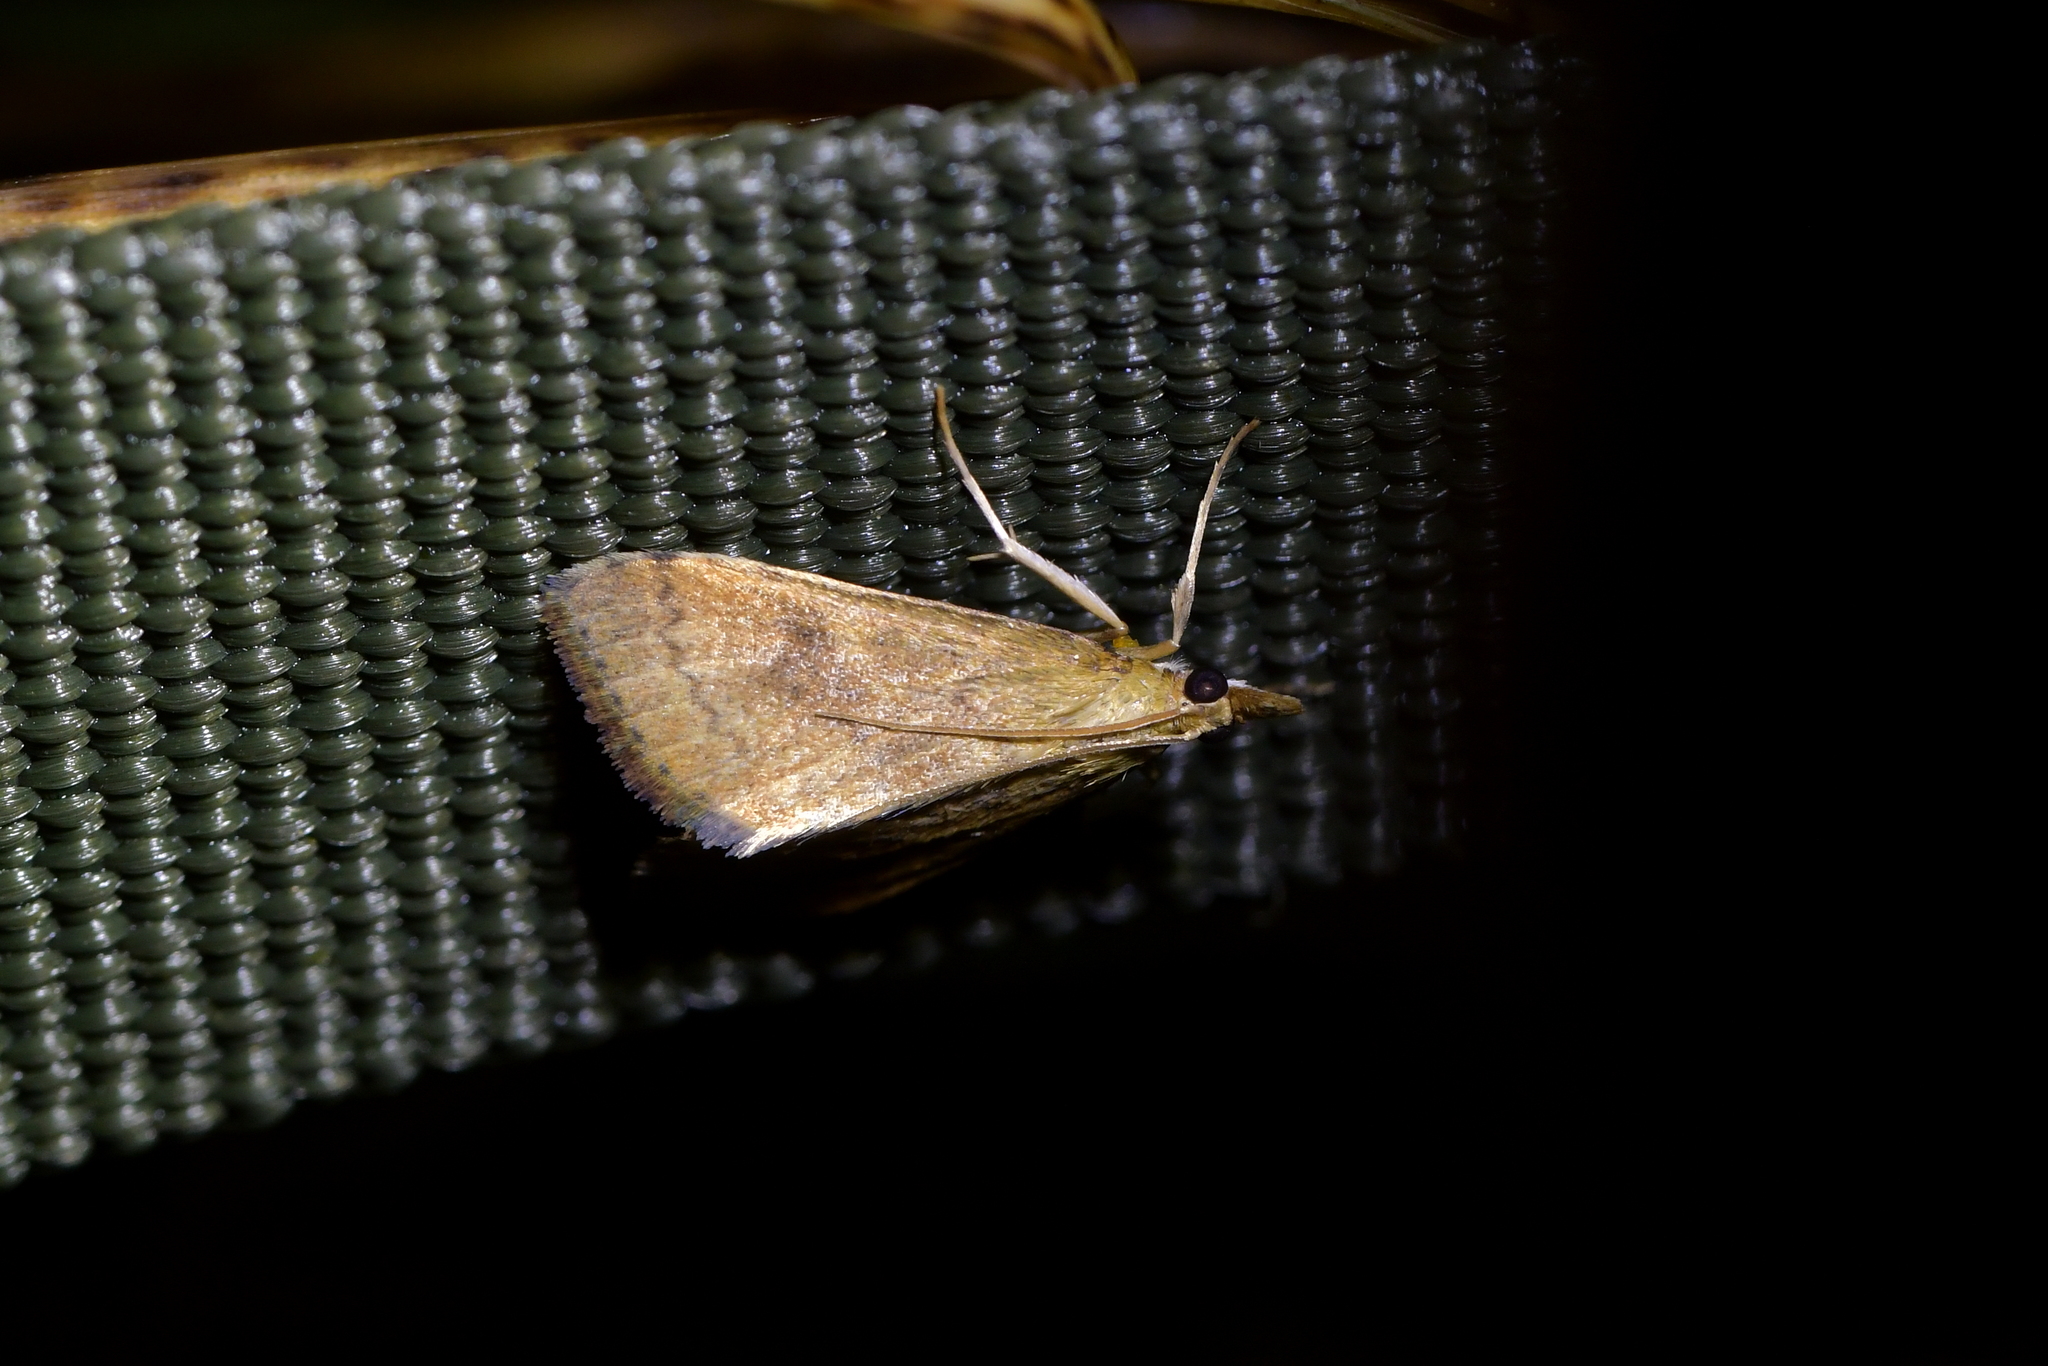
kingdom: Animalia
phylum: Arthropoda
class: Insecta
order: Lepidoptera
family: Crambidae
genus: Udea
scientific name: Udea Mnesictena flavidalis
